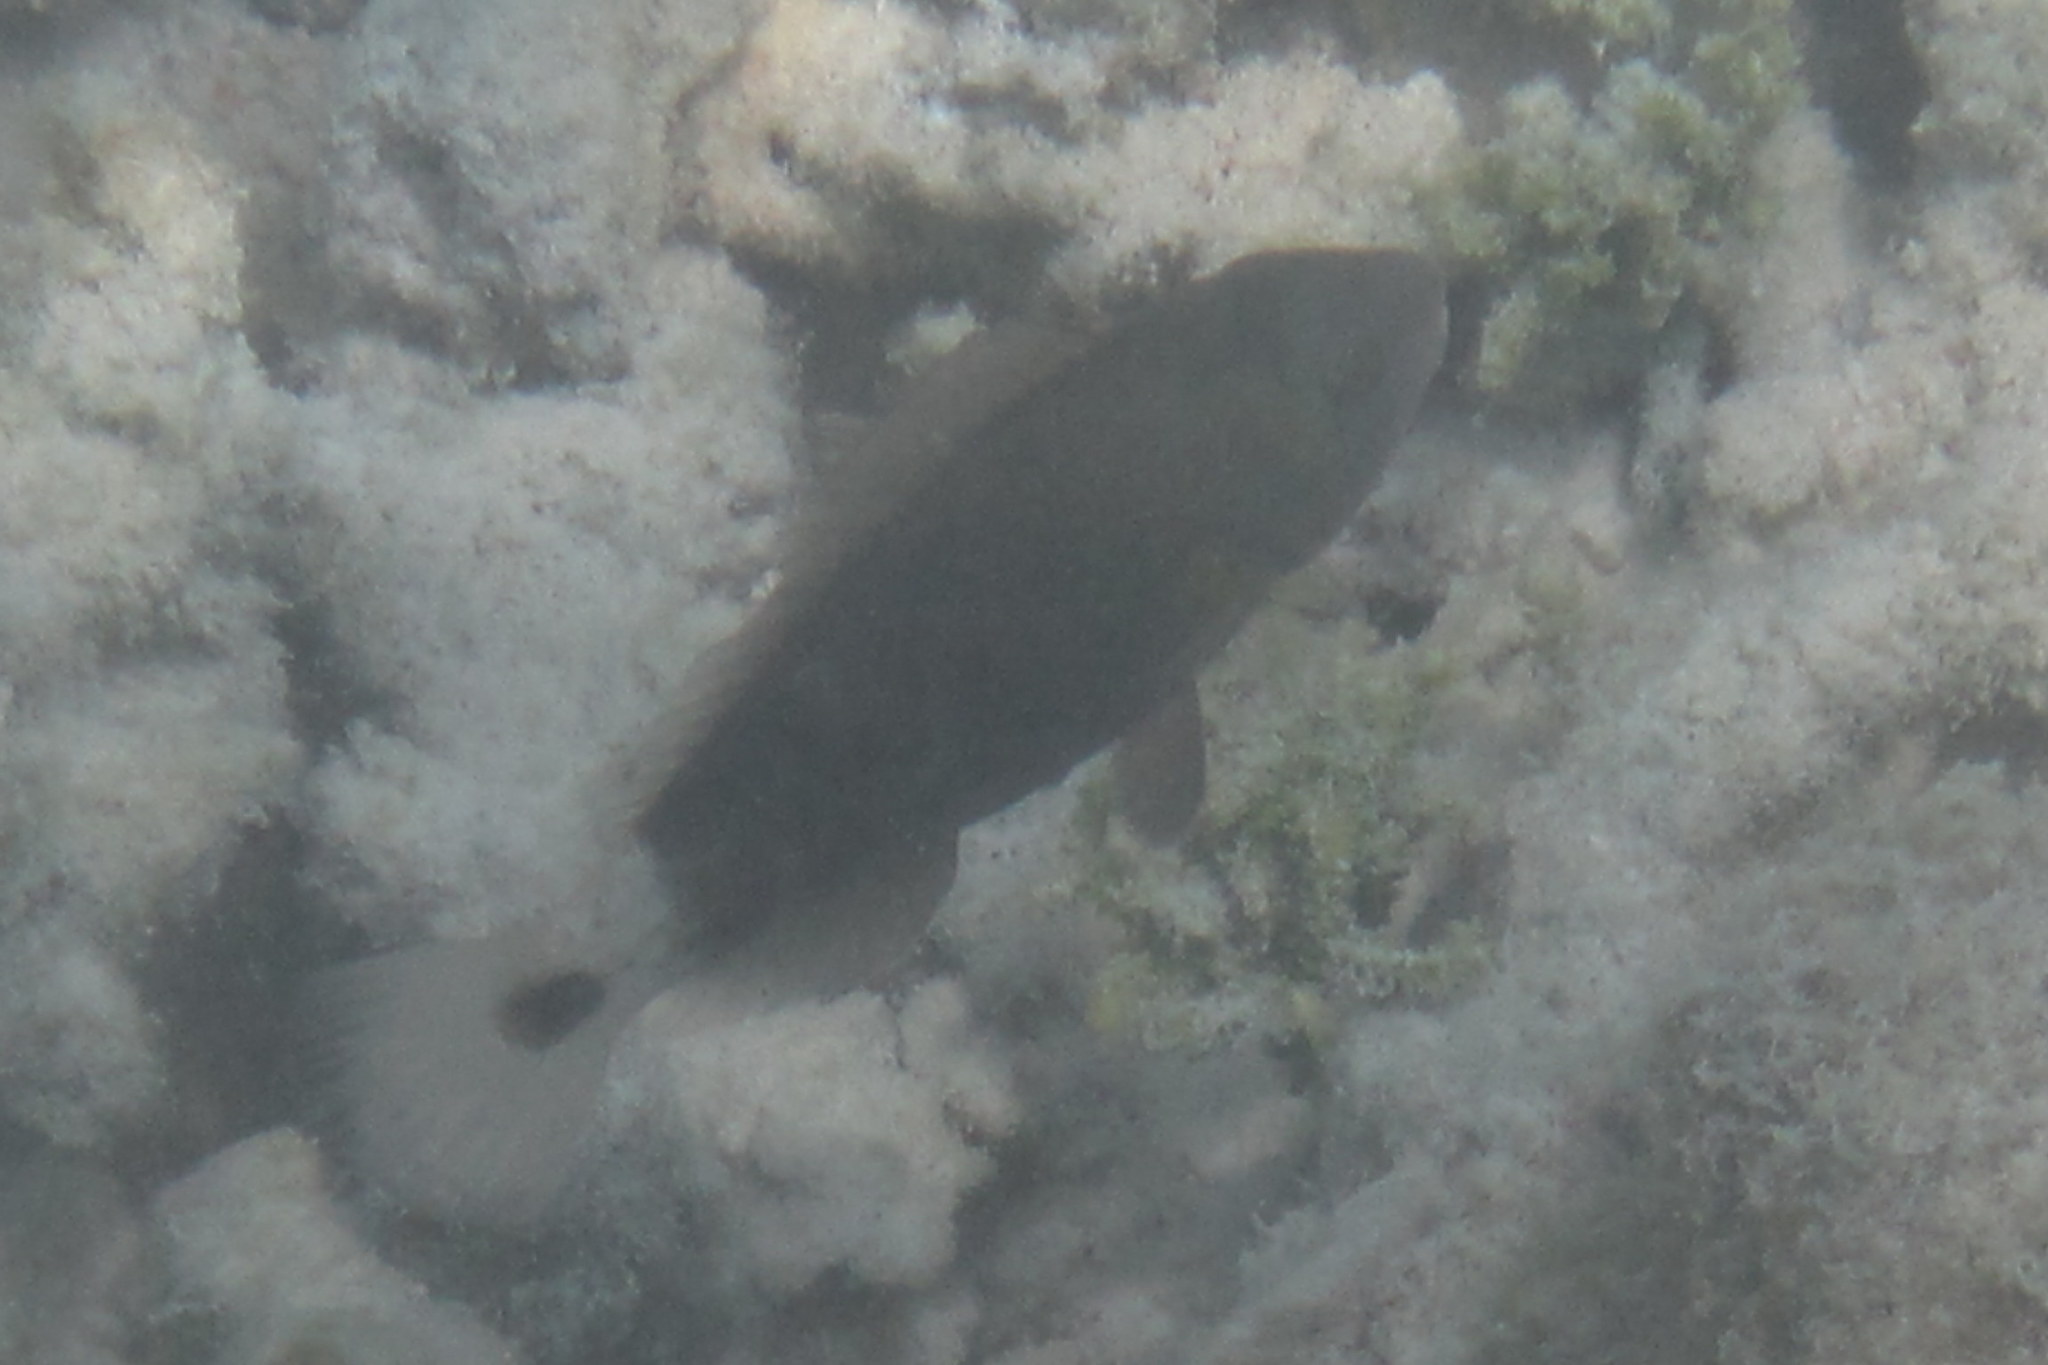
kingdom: Animalia
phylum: Chordata
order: Perciformes
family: Scaridae
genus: Chlorurus
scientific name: Chlorurus spilurus
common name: Bullethead parrotfish
